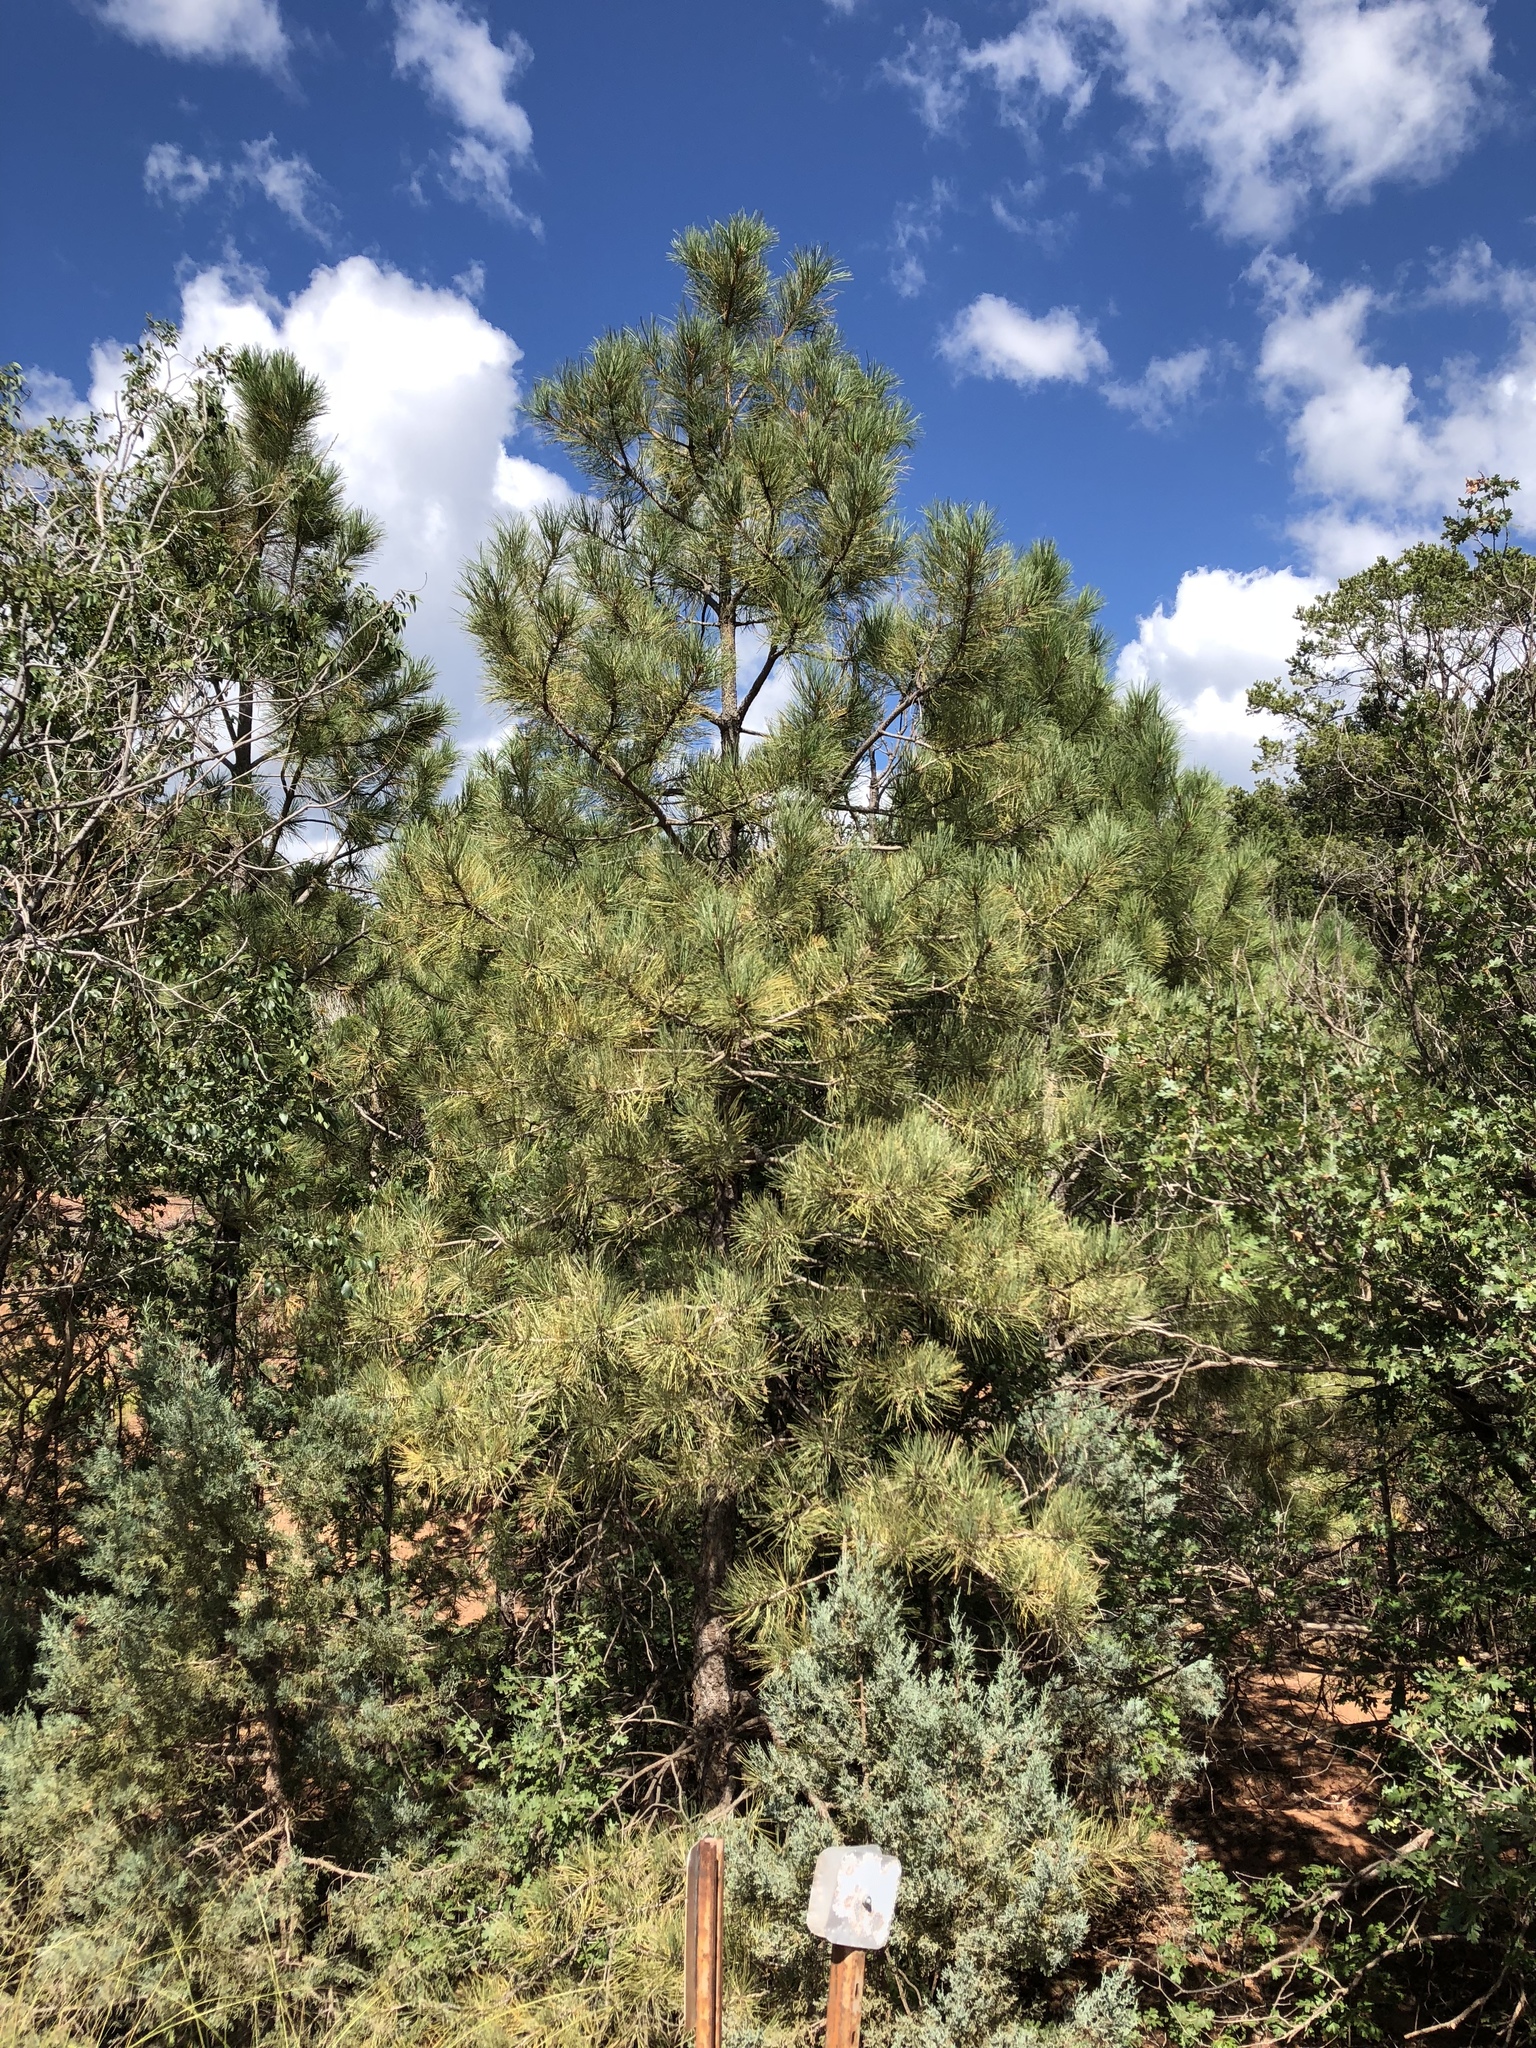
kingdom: Plantae
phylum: Tracheophyta
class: Pinopsida
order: Pinales
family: Pinaceae
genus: Pinus
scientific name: Pinus ponderosa
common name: Western yellow-pine
